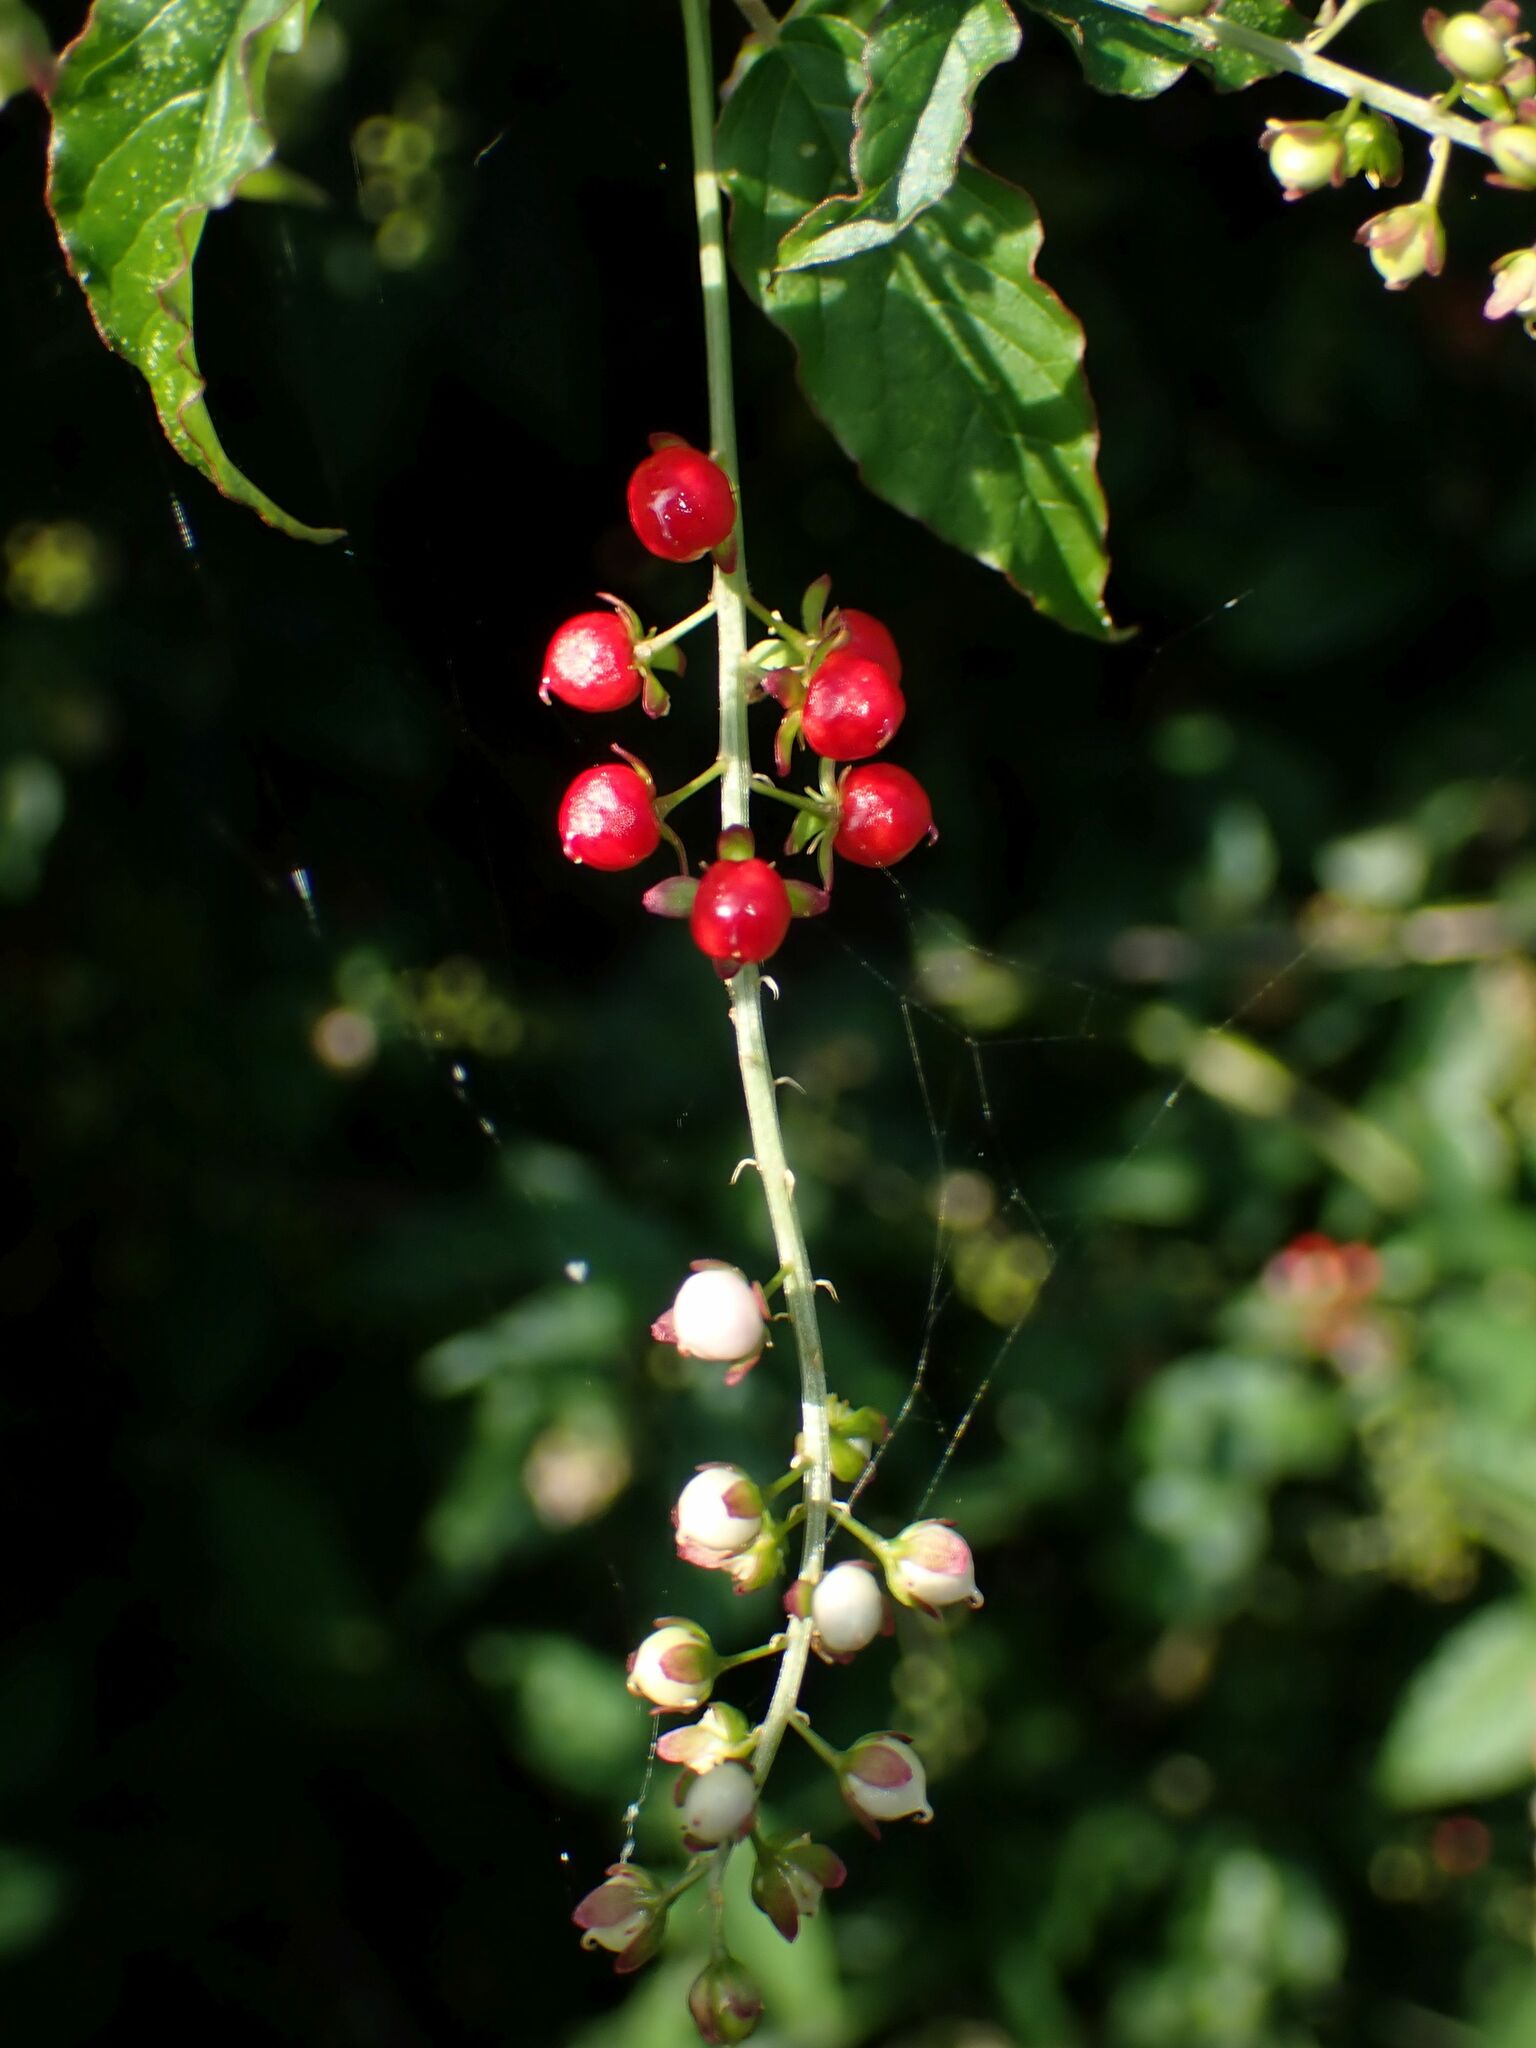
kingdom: Plantae
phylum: Tracheophyta
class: Magnoliopsida
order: Caryophyllales
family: Phytolaccaceae
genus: Rivina
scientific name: Rivina humilis
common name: Rougeplant
